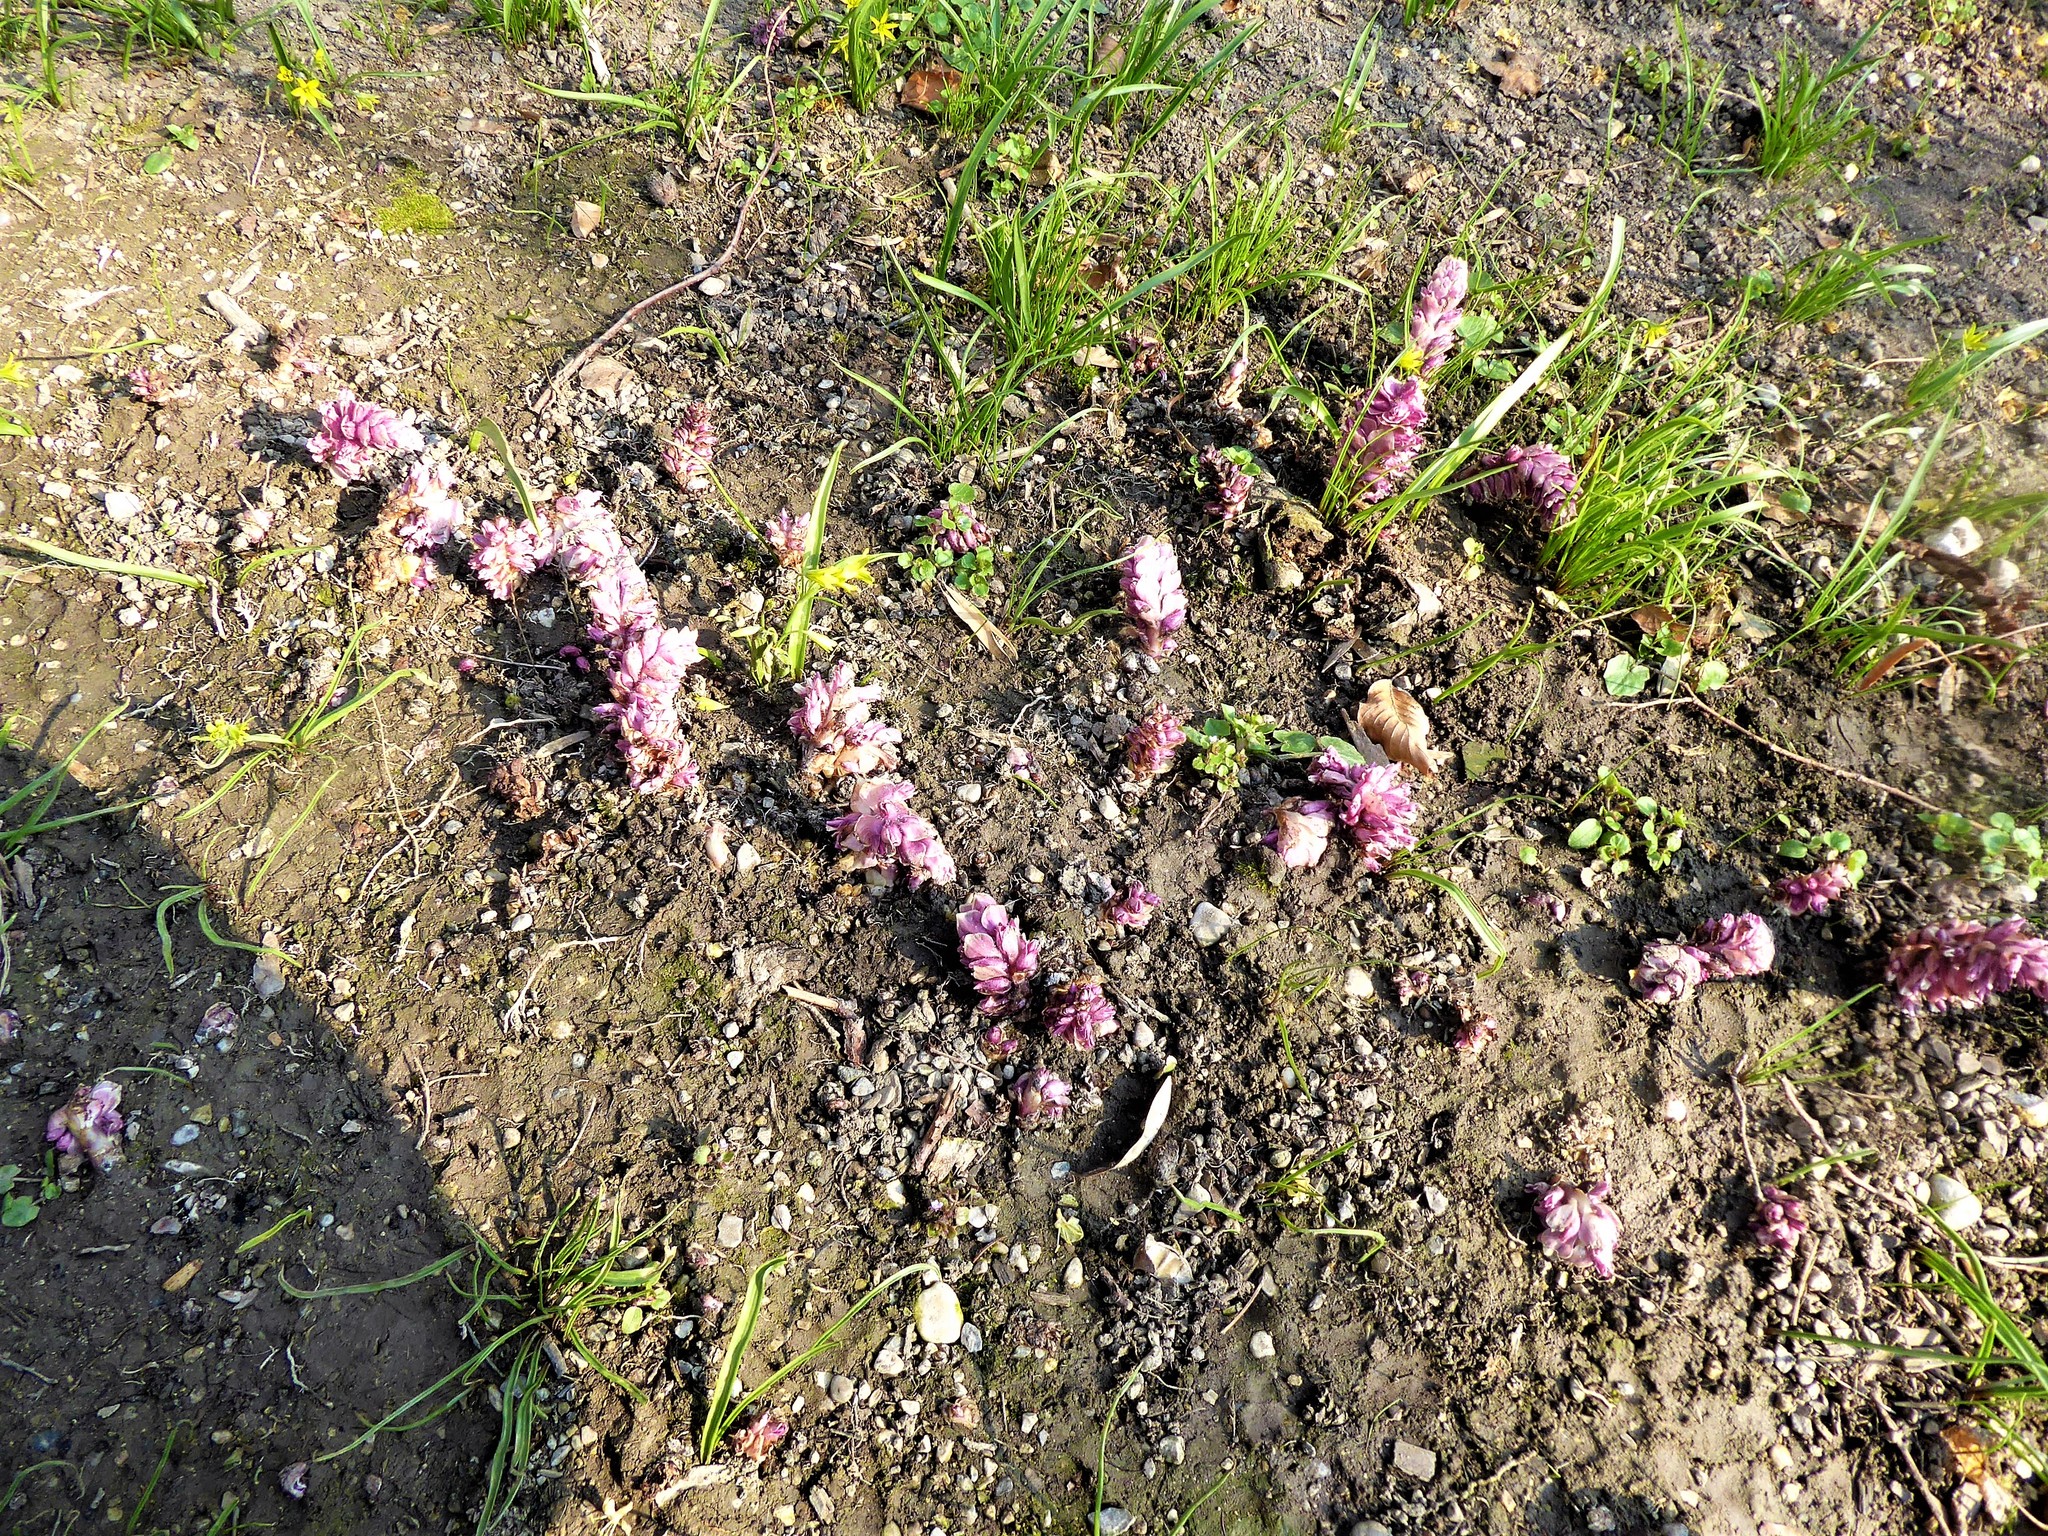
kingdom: Plantae
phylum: Tracheophyta
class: Magnoliopsida
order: Lamiales
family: Orobanchaceae
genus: Lathraea
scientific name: Lathraea squamaria
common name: Toothwort
